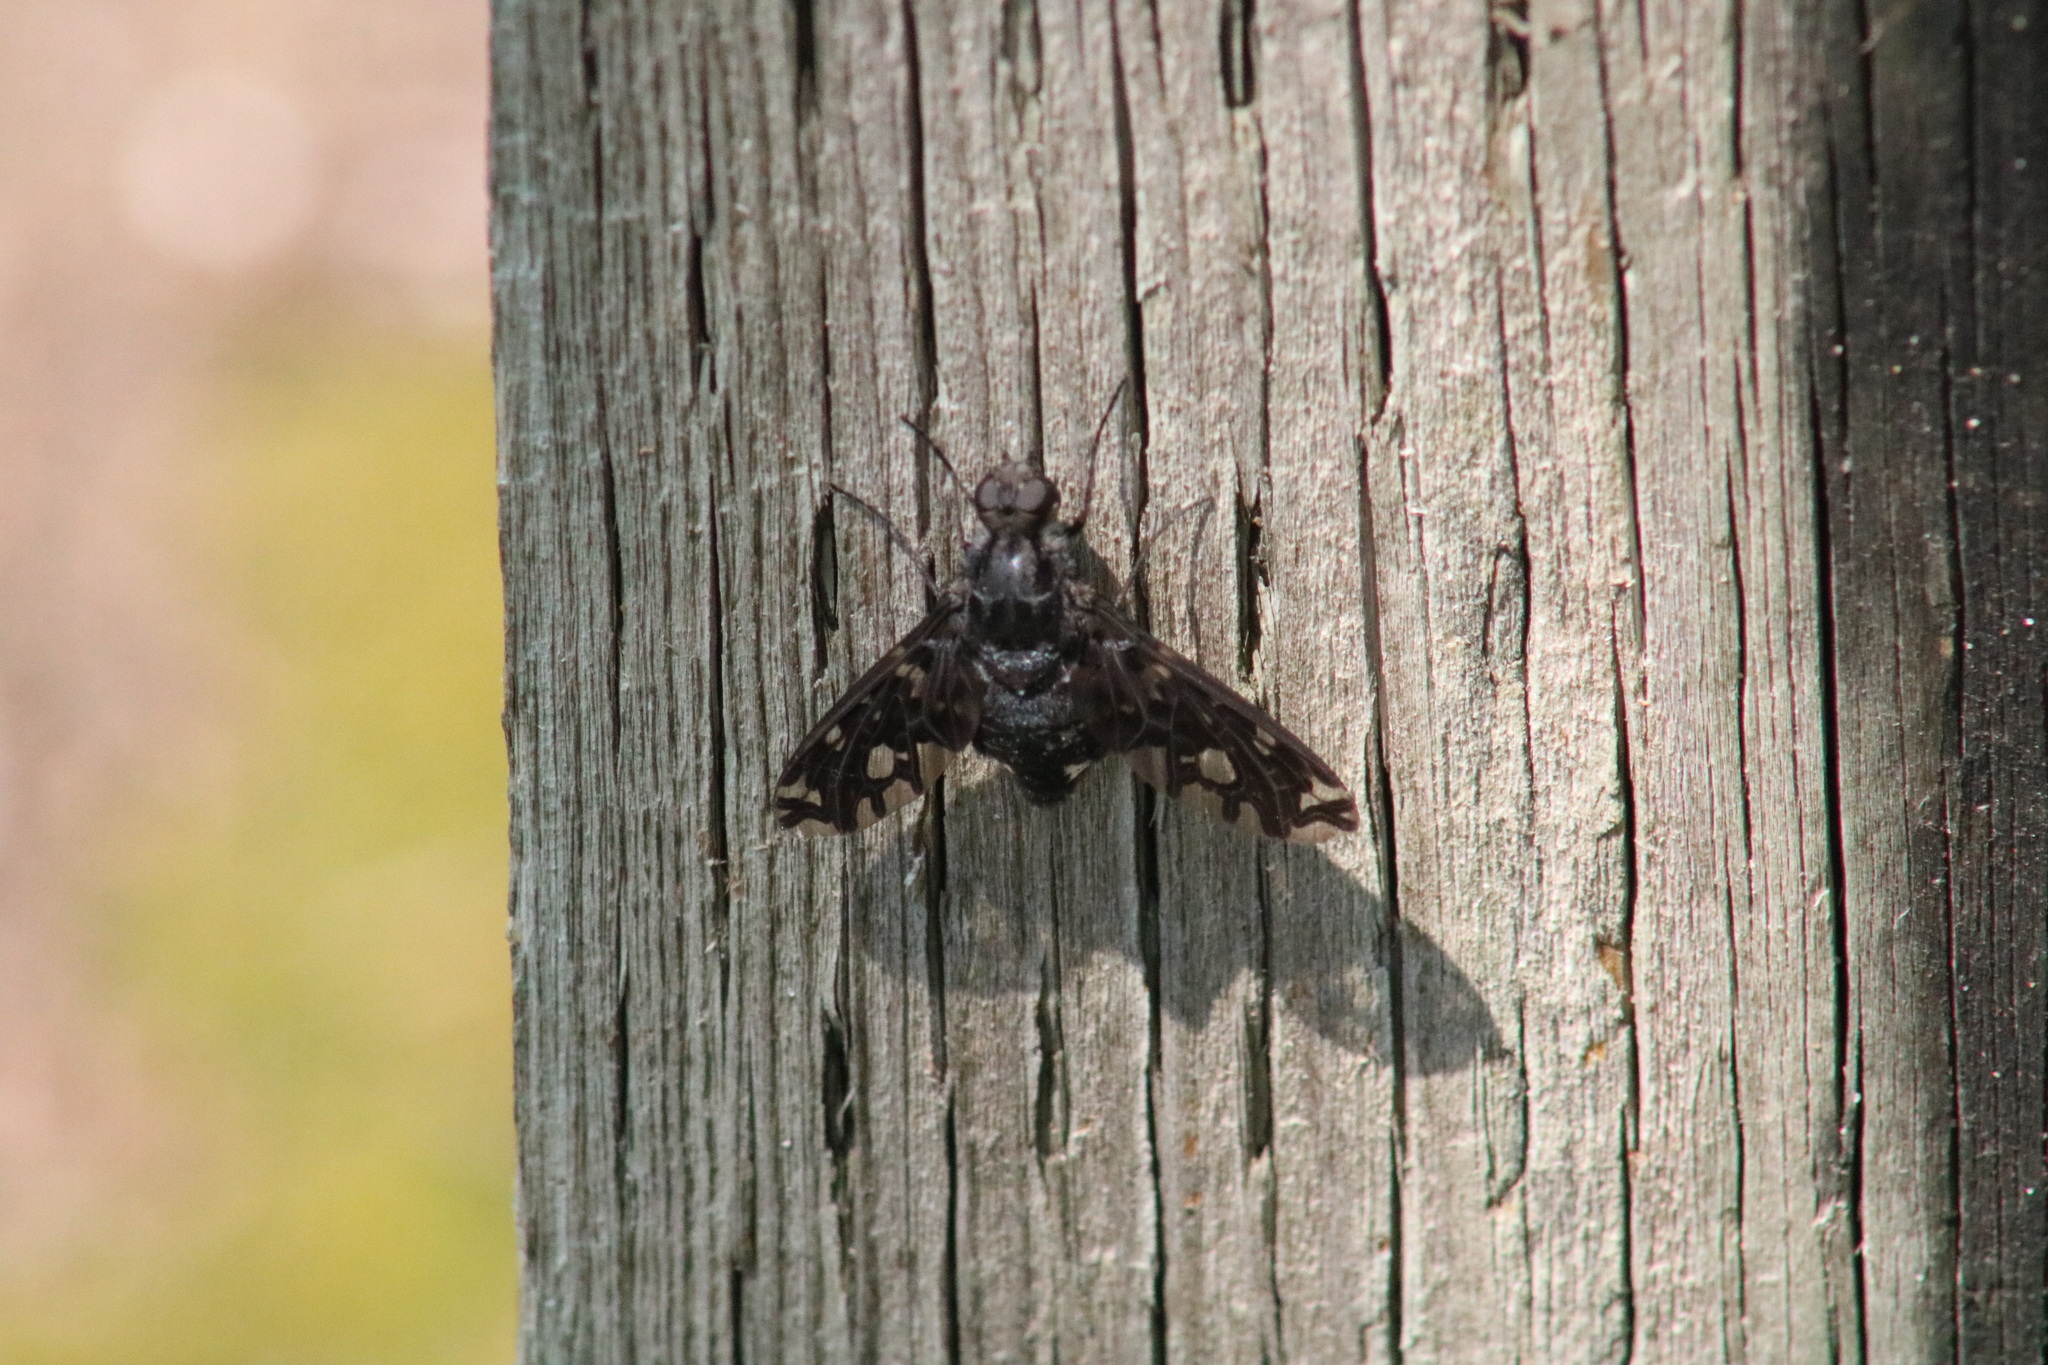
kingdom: Animalia
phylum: Arthropoda
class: Insecta
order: Diptera
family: Bombyliidae
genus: Xenox
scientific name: Xenox tigrinus
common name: Tiger bee fly
